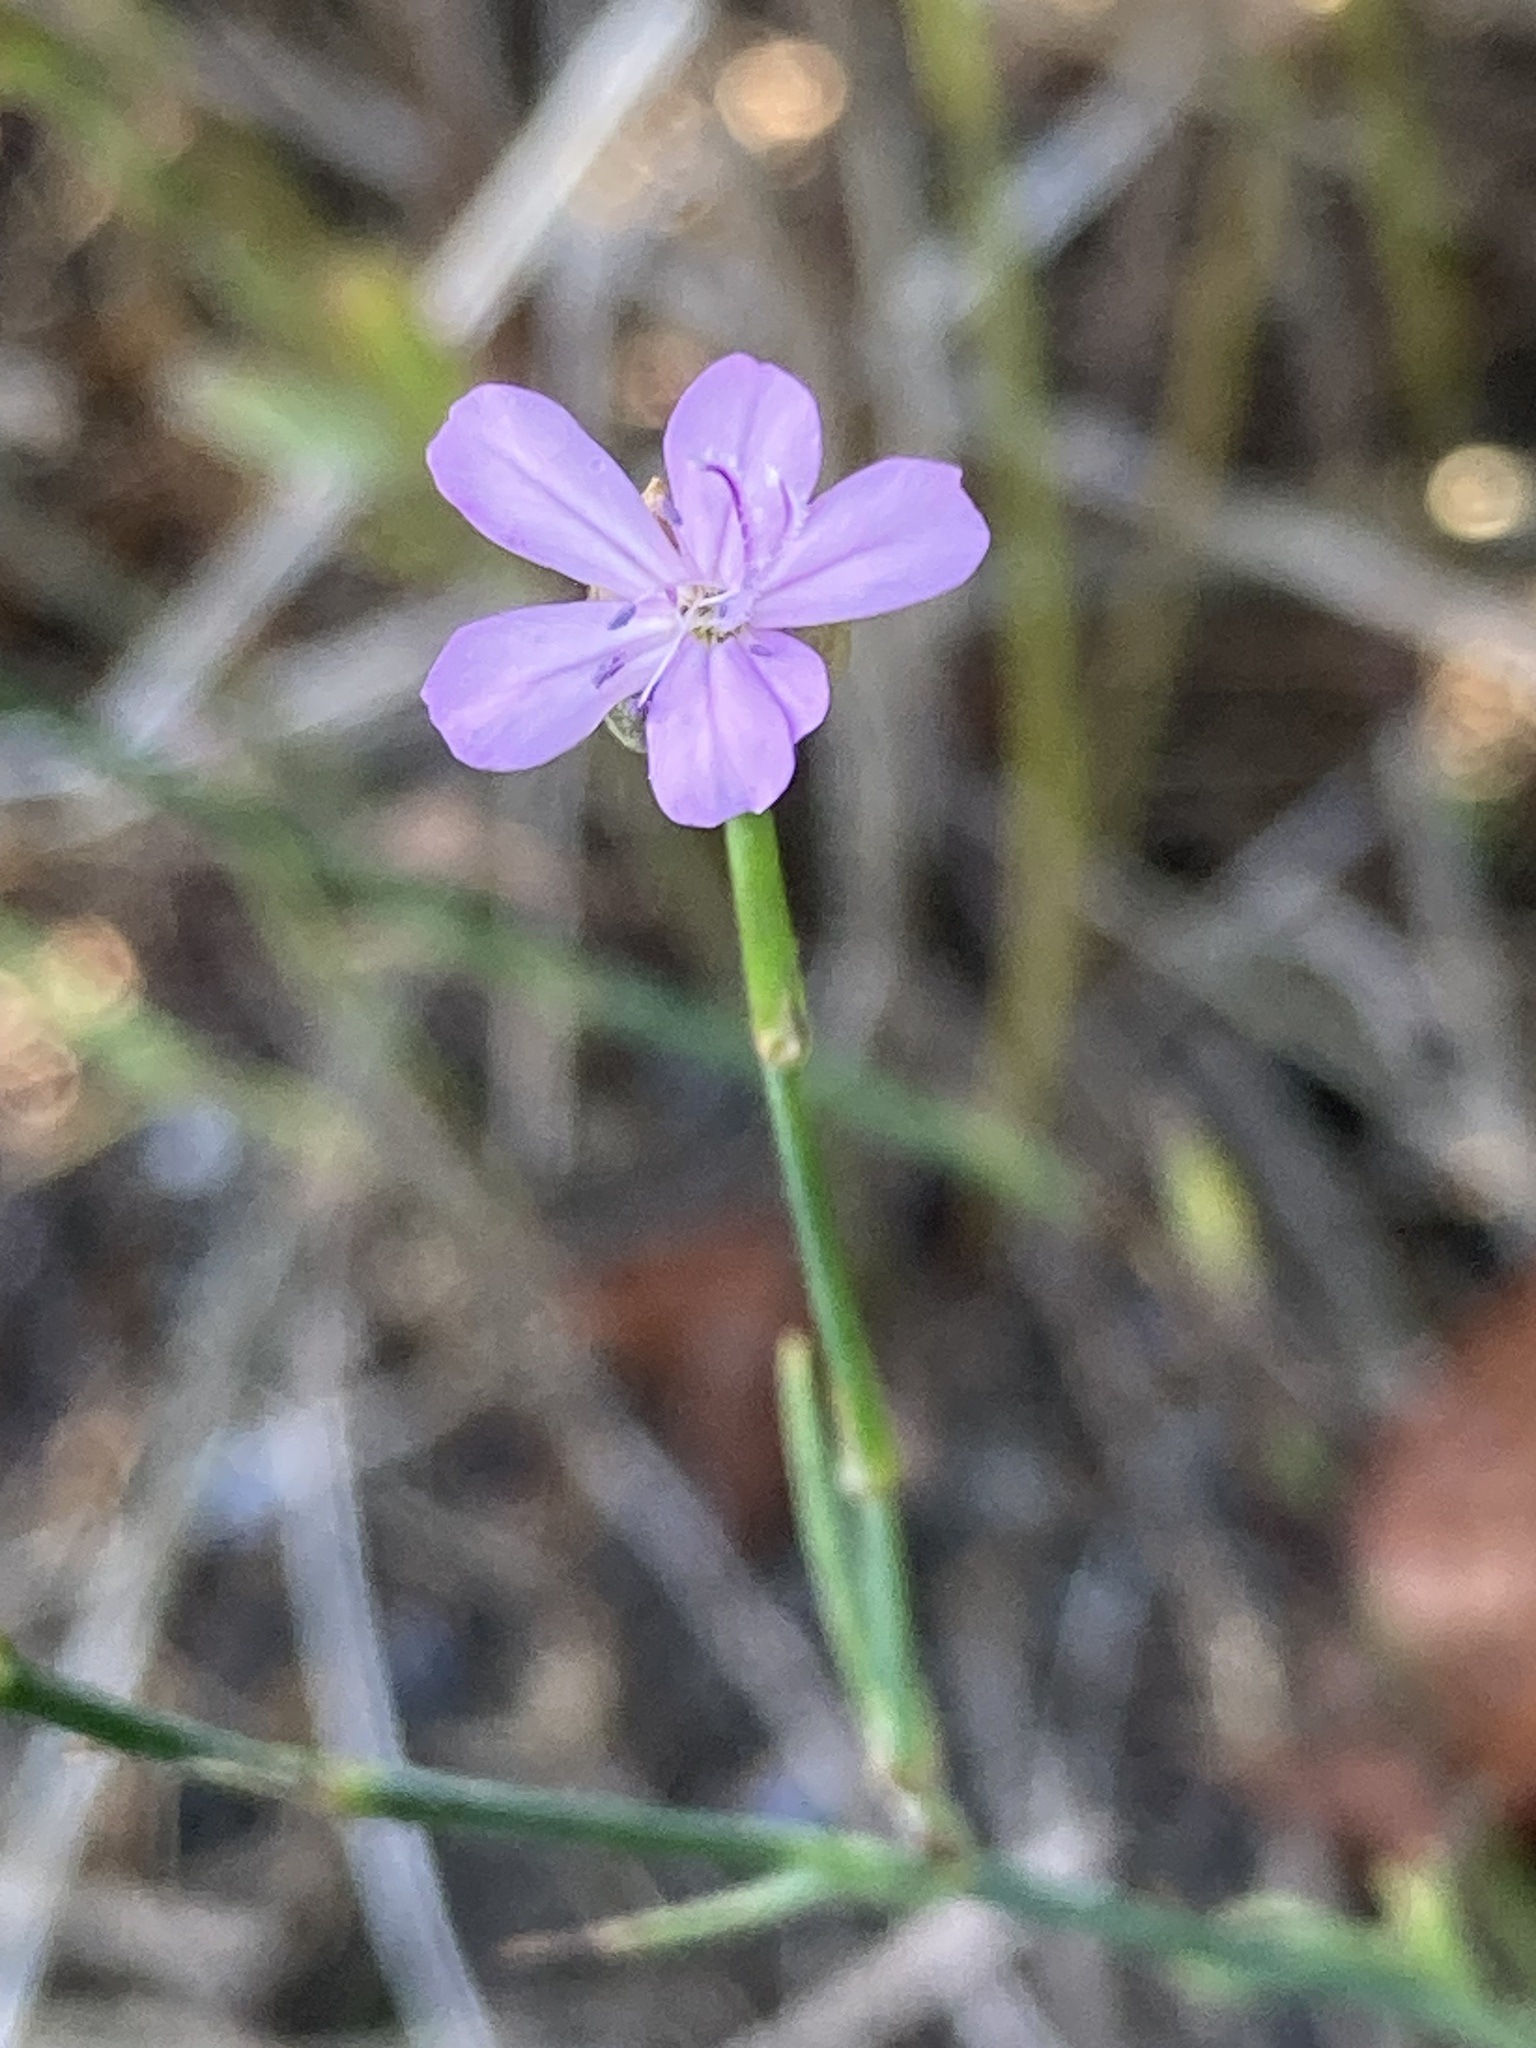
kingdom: Plantae
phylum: Tracheophyta
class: Magnoliopsida
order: Caryophyllales
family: Caryophyllaceae
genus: Petrorhagia
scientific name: Petrorhagia prolifera
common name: Proliferous pink
